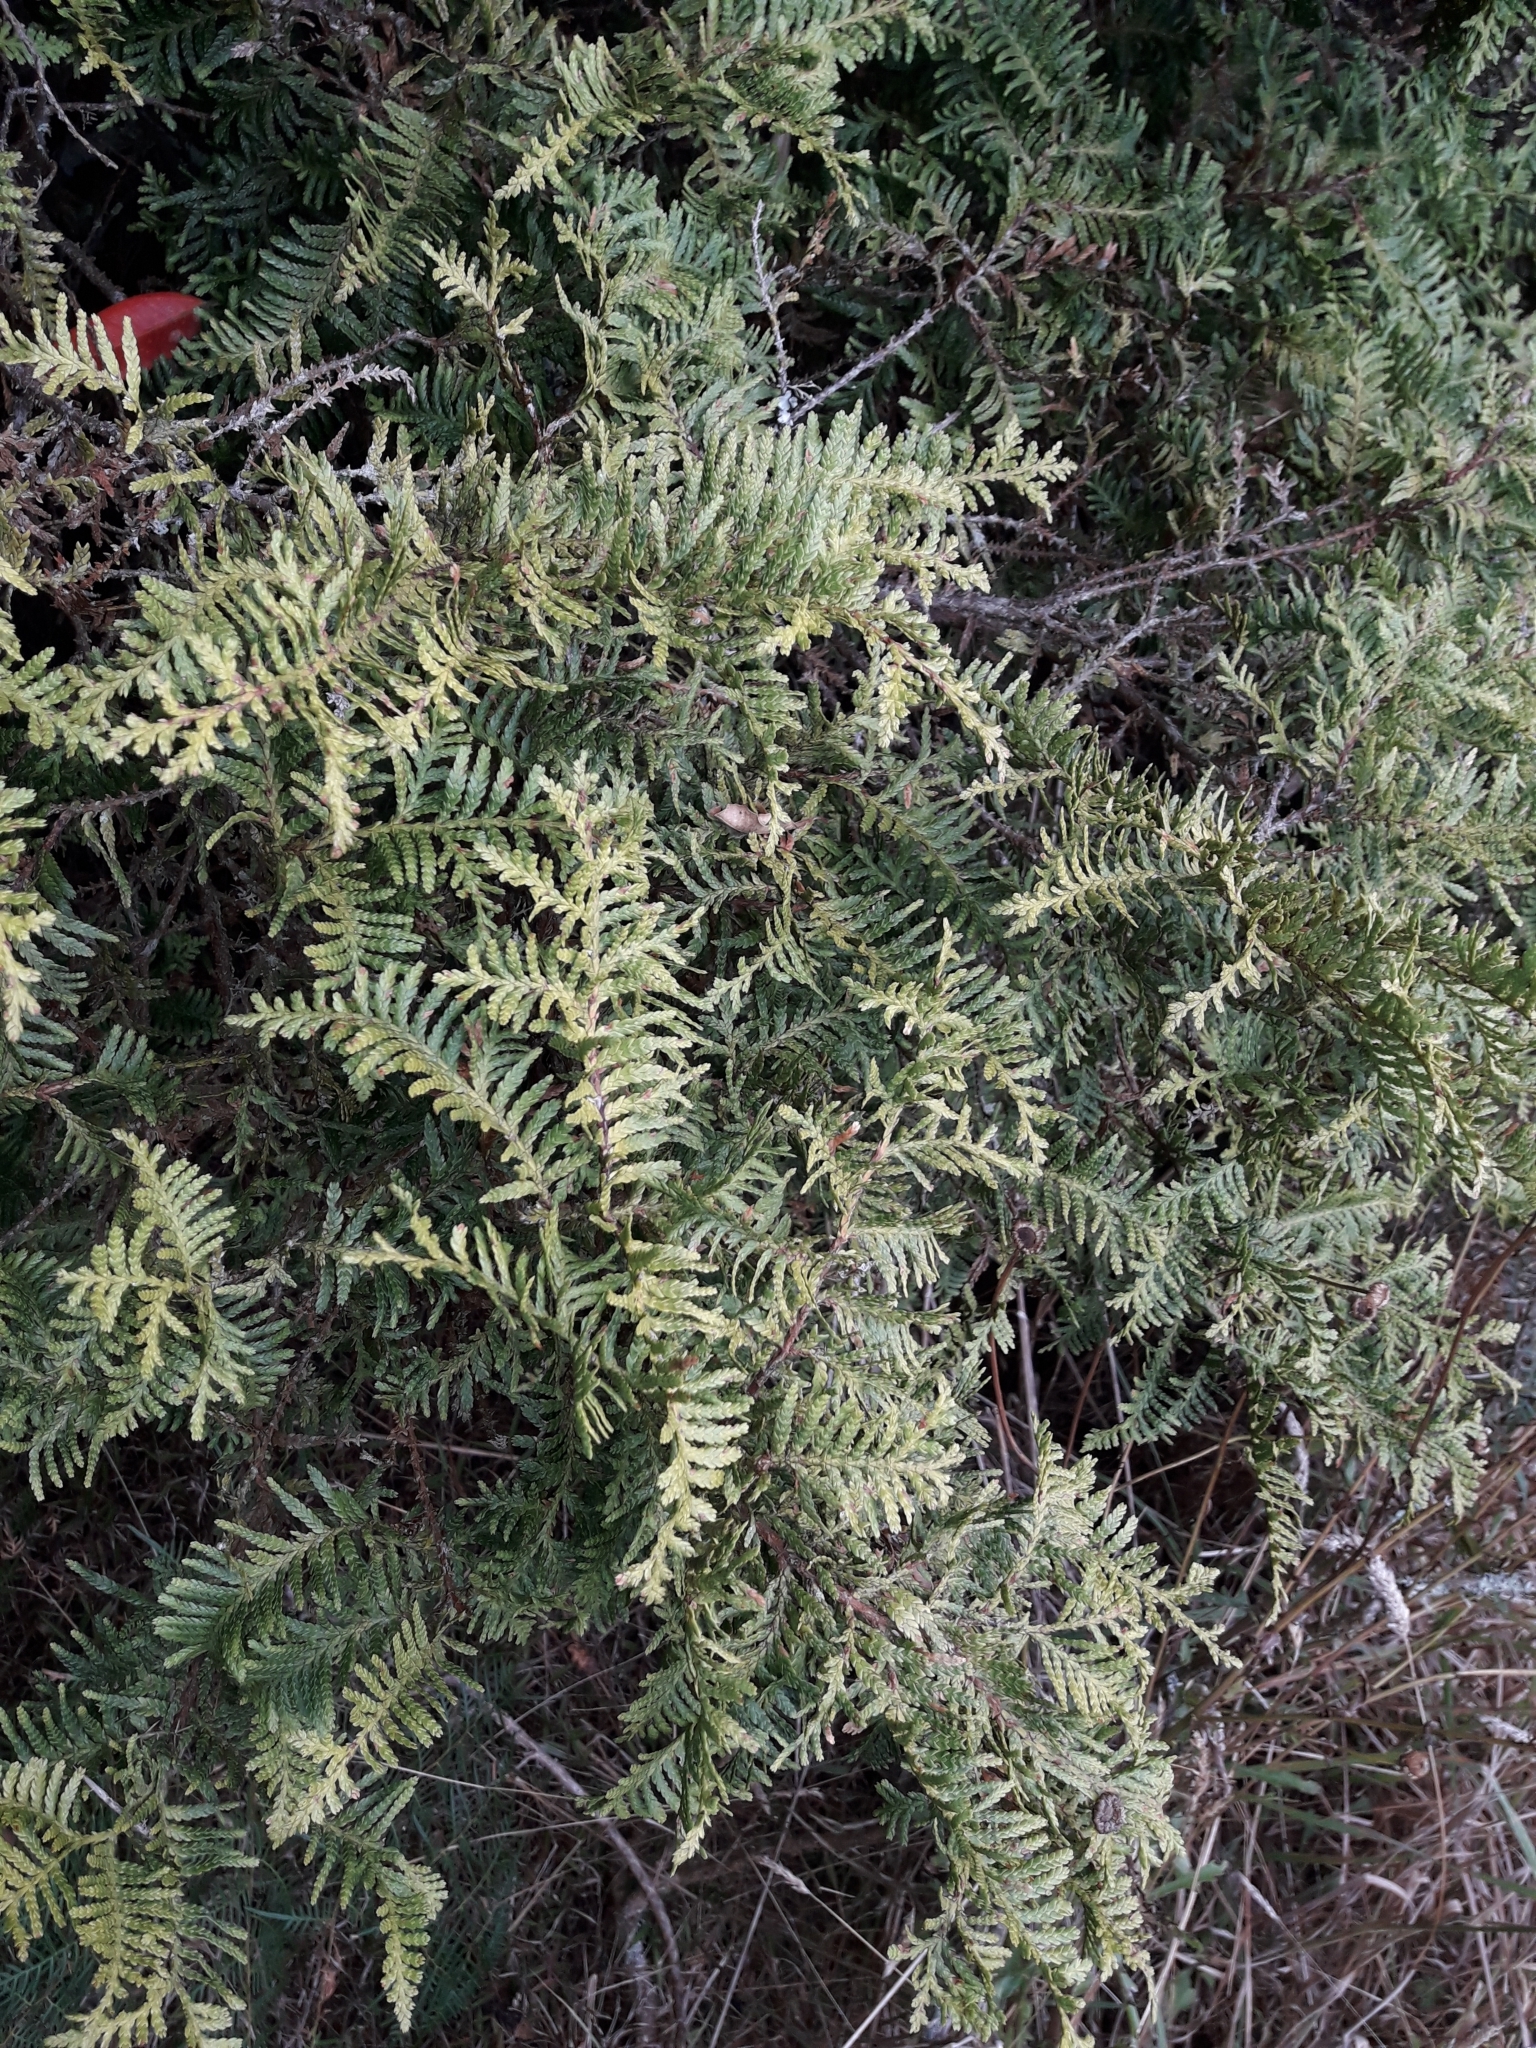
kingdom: Plantae
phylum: Tracheophyta
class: Pinopsida
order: Pinales
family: Cupressaceae
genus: Libocedrus
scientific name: Libocedrus plumosa
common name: New zealand cedar
